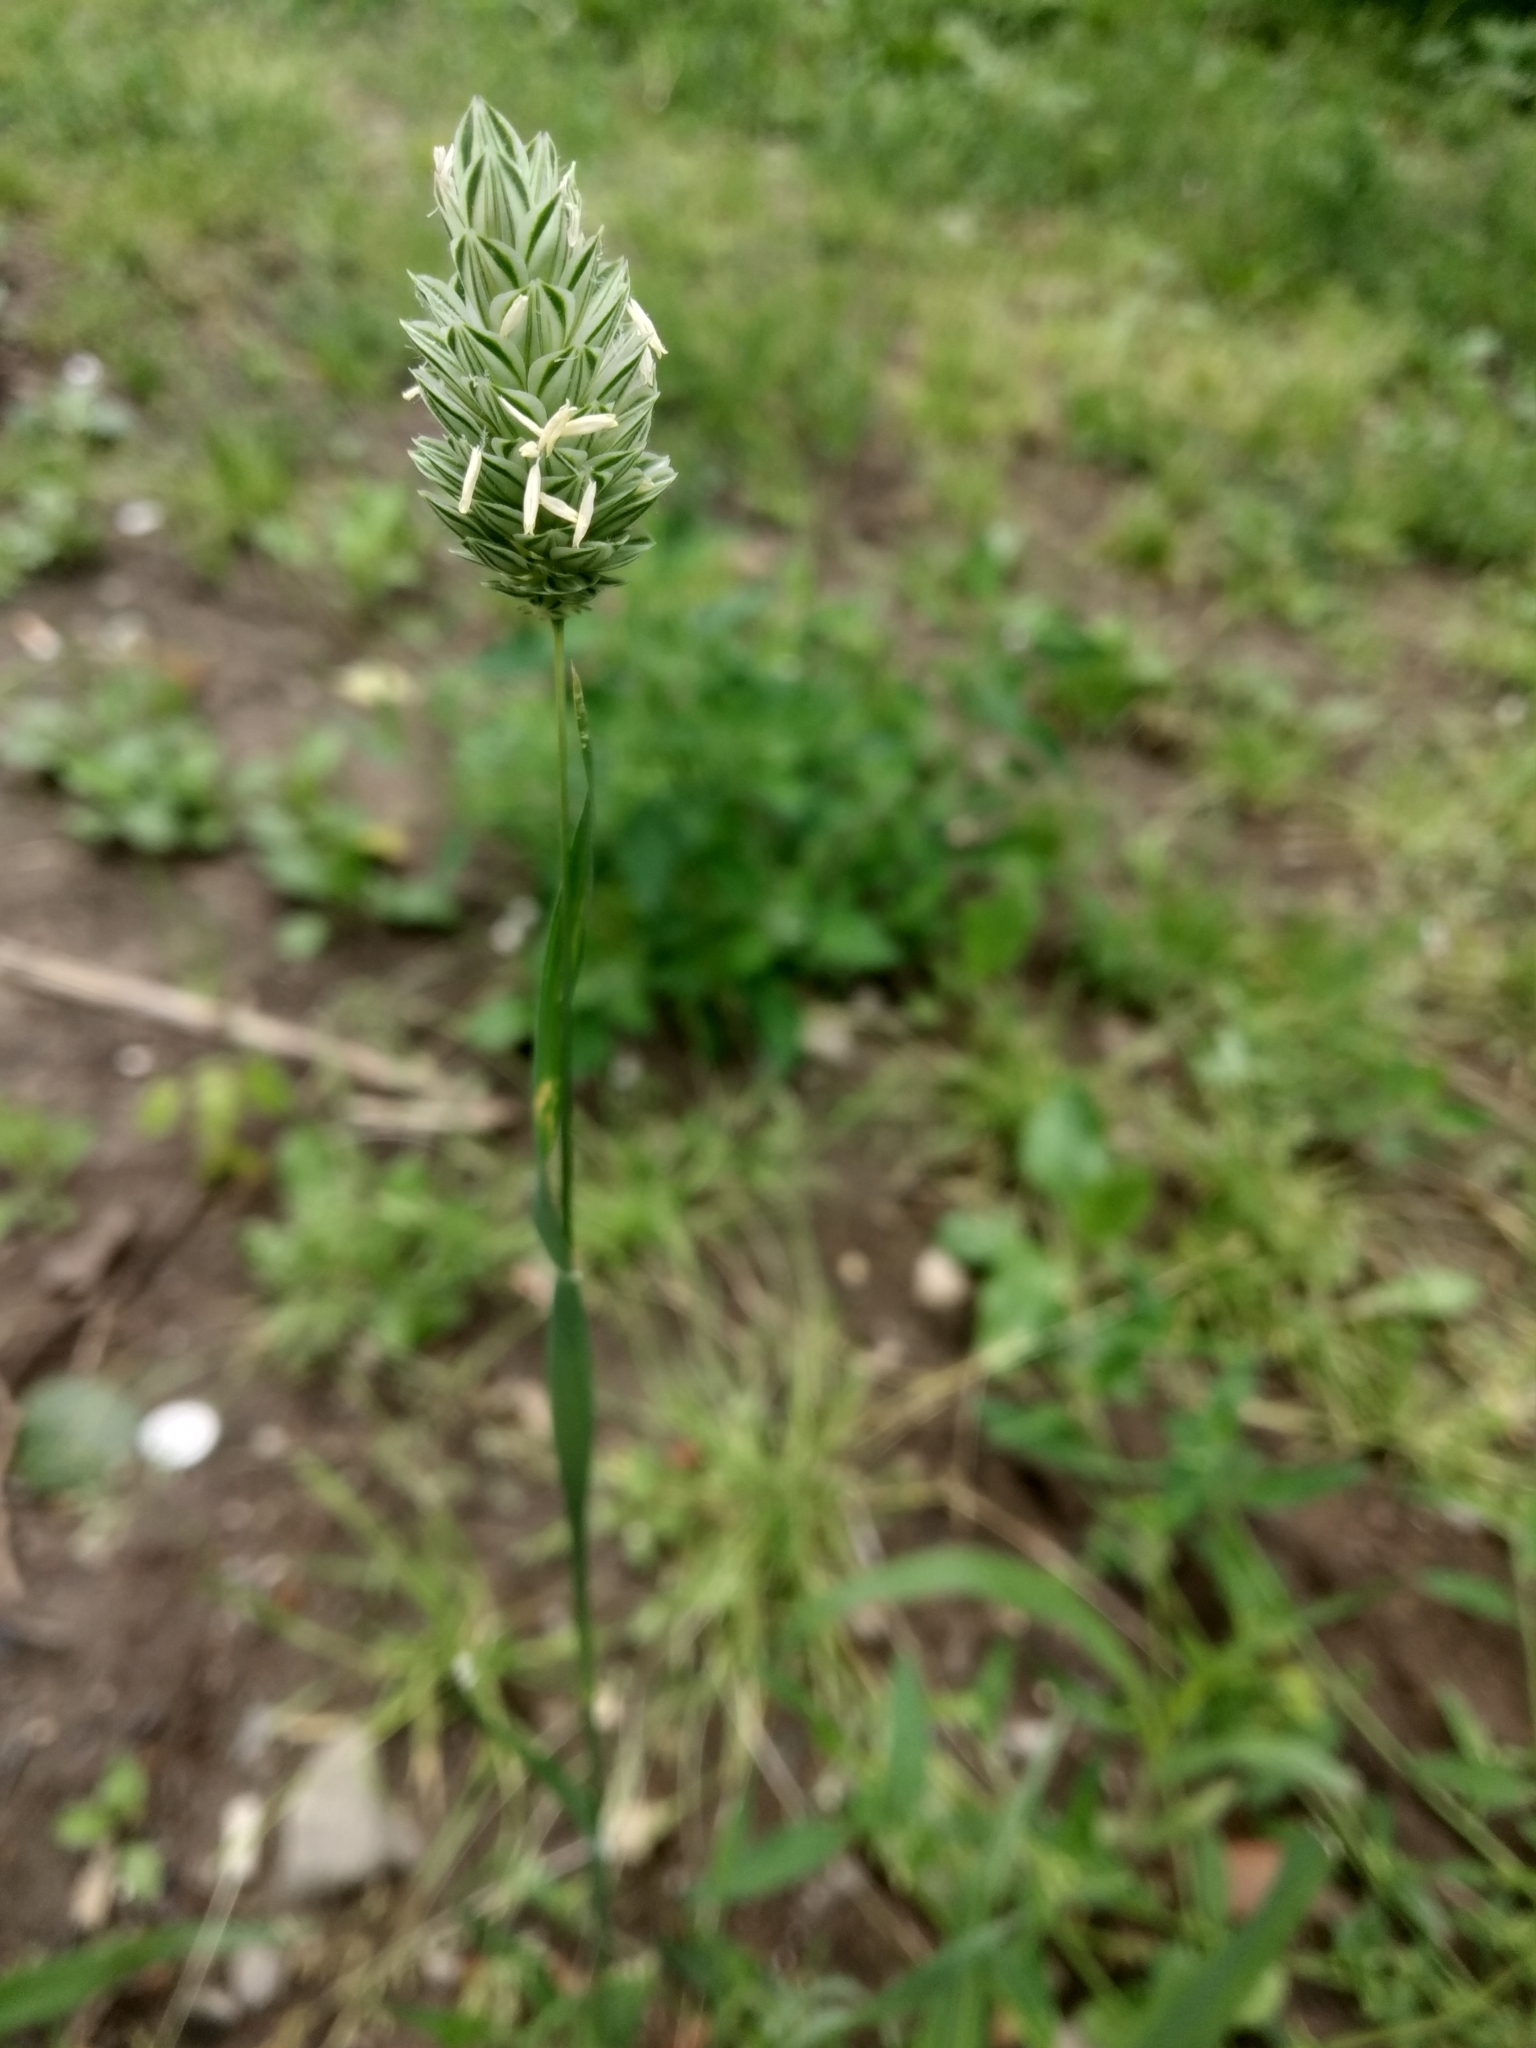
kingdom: Plantae
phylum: Tracheophyta
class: Liliopsida
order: Poales
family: Poaceae
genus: Phalaris
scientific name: Phalaris canariensis
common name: Annual canarygrass
